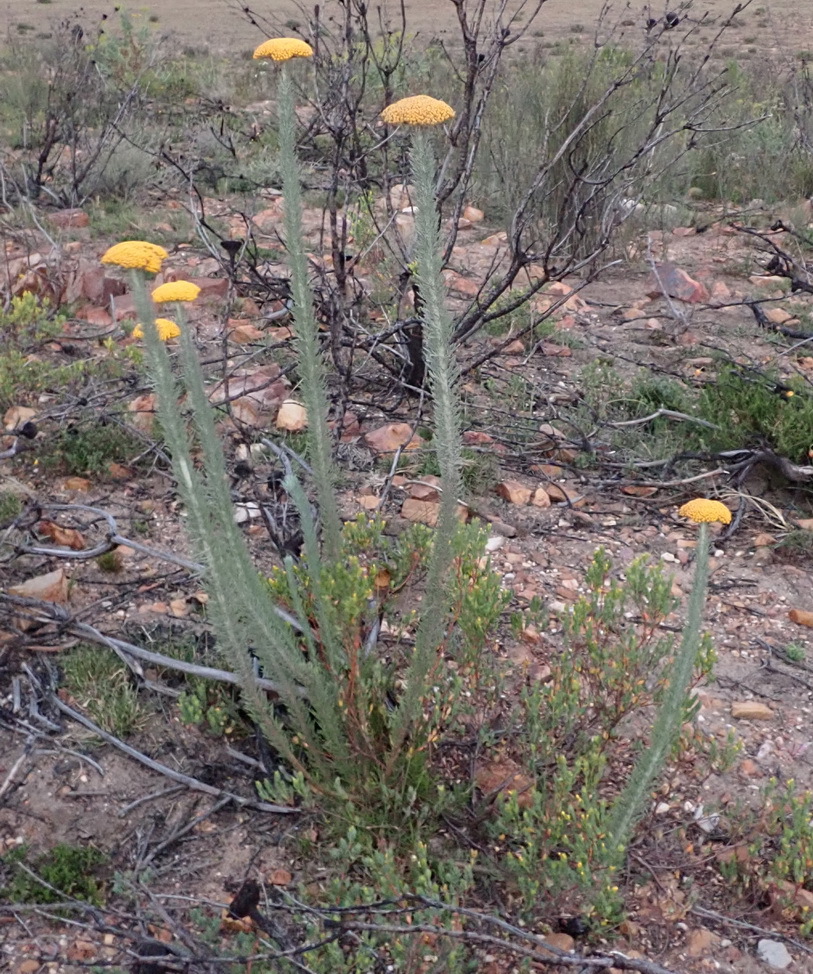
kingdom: Plantae
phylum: Tracheophyta
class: Magnoliopsida
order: Asterales
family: Asteraceae
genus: Athanasia
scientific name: Athanasia pinnata
